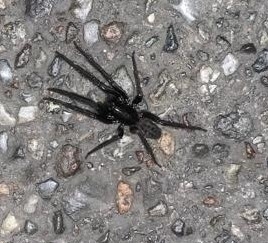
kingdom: Animalia
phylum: Arthropoda
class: Arachnida
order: Araneae
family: Segestriidae
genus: Segestria
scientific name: Segestria florentina
